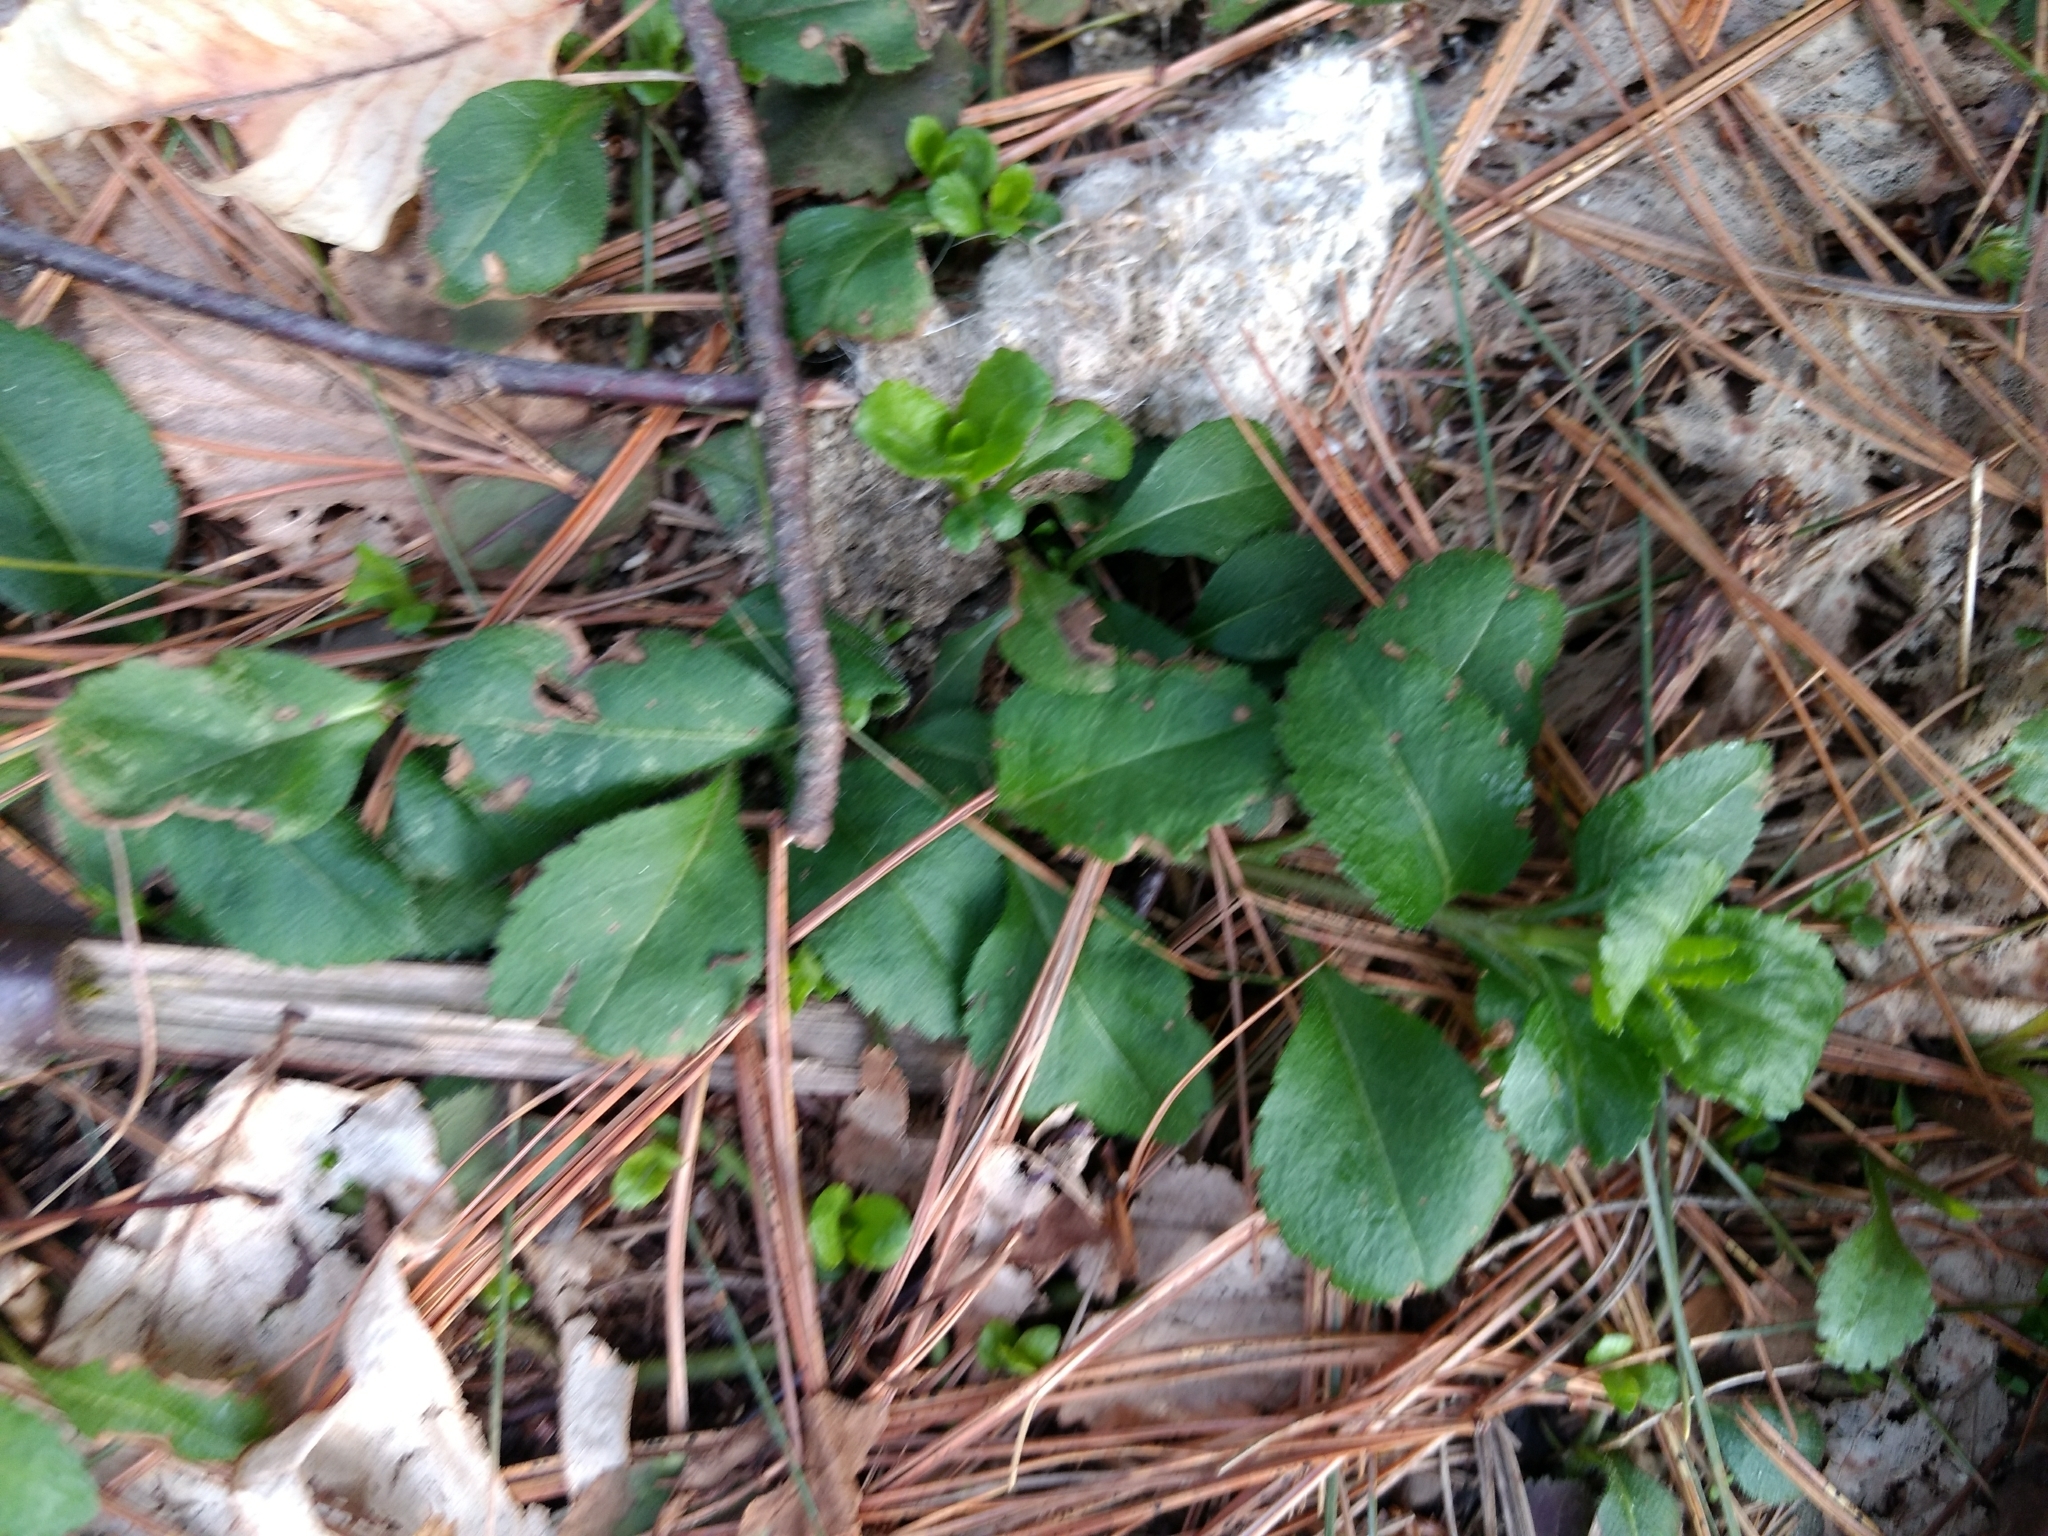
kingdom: Plantae
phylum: Tracheophyta
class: Magnoliopsida
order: Lamiales
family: Plantaginaceae
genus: Veronica
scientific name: Veronica officinalis
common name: Common speedwell
